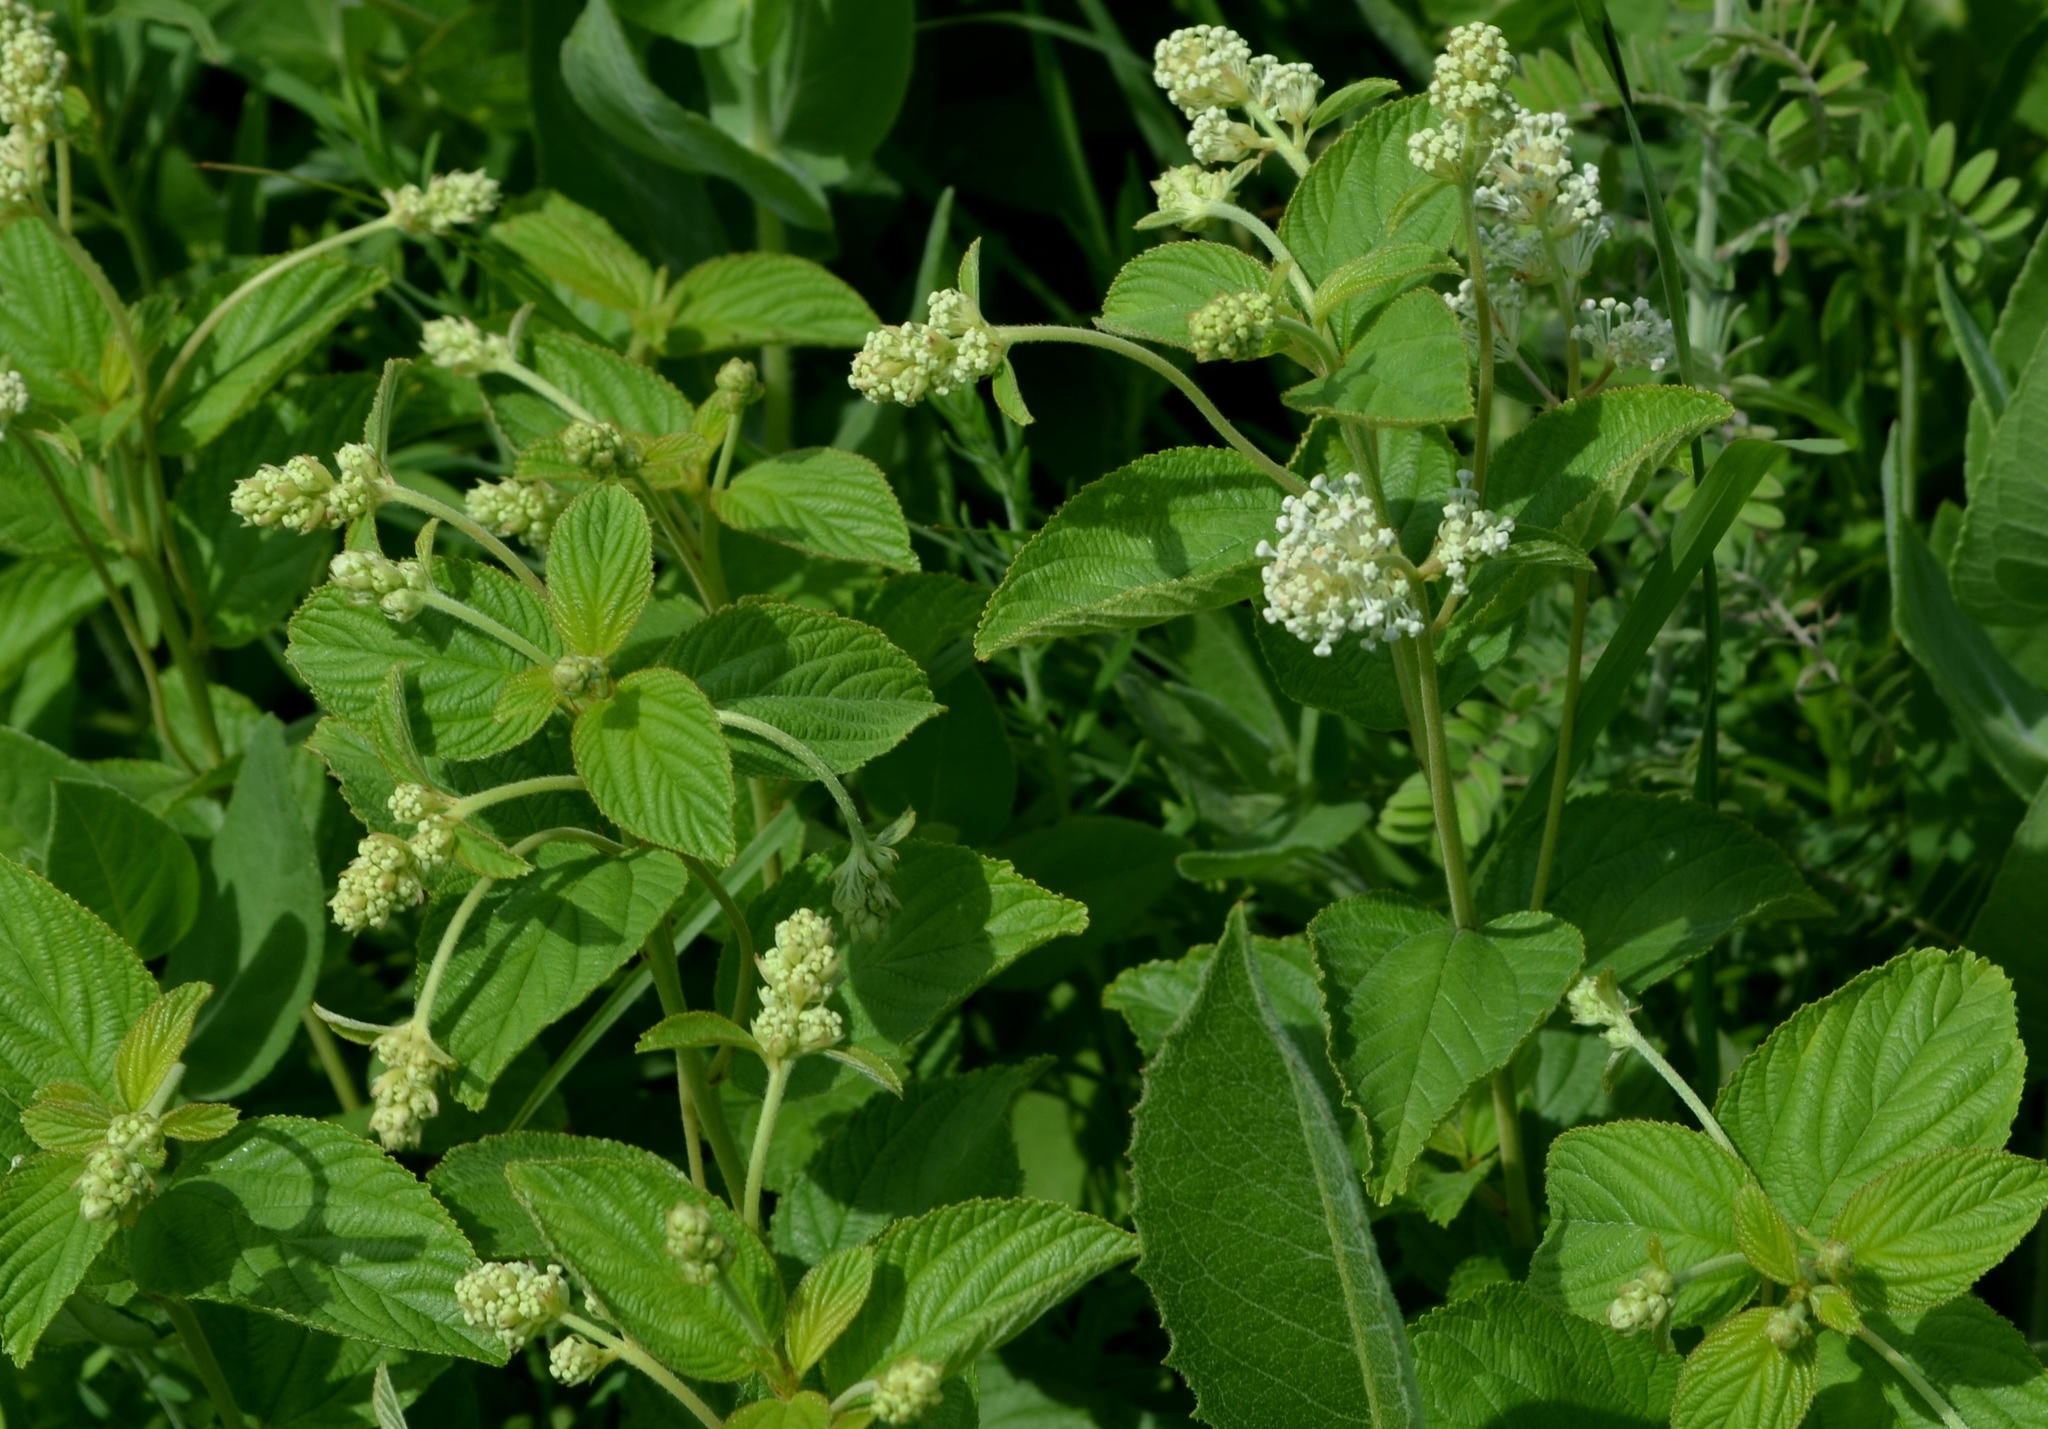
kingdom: Plantae
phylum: Tracheophyta
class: Magnoliopsida
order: Rosales
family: Rhamnaceae
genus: Ceanothus
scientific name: Ceanothus americanus
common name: Redroot
